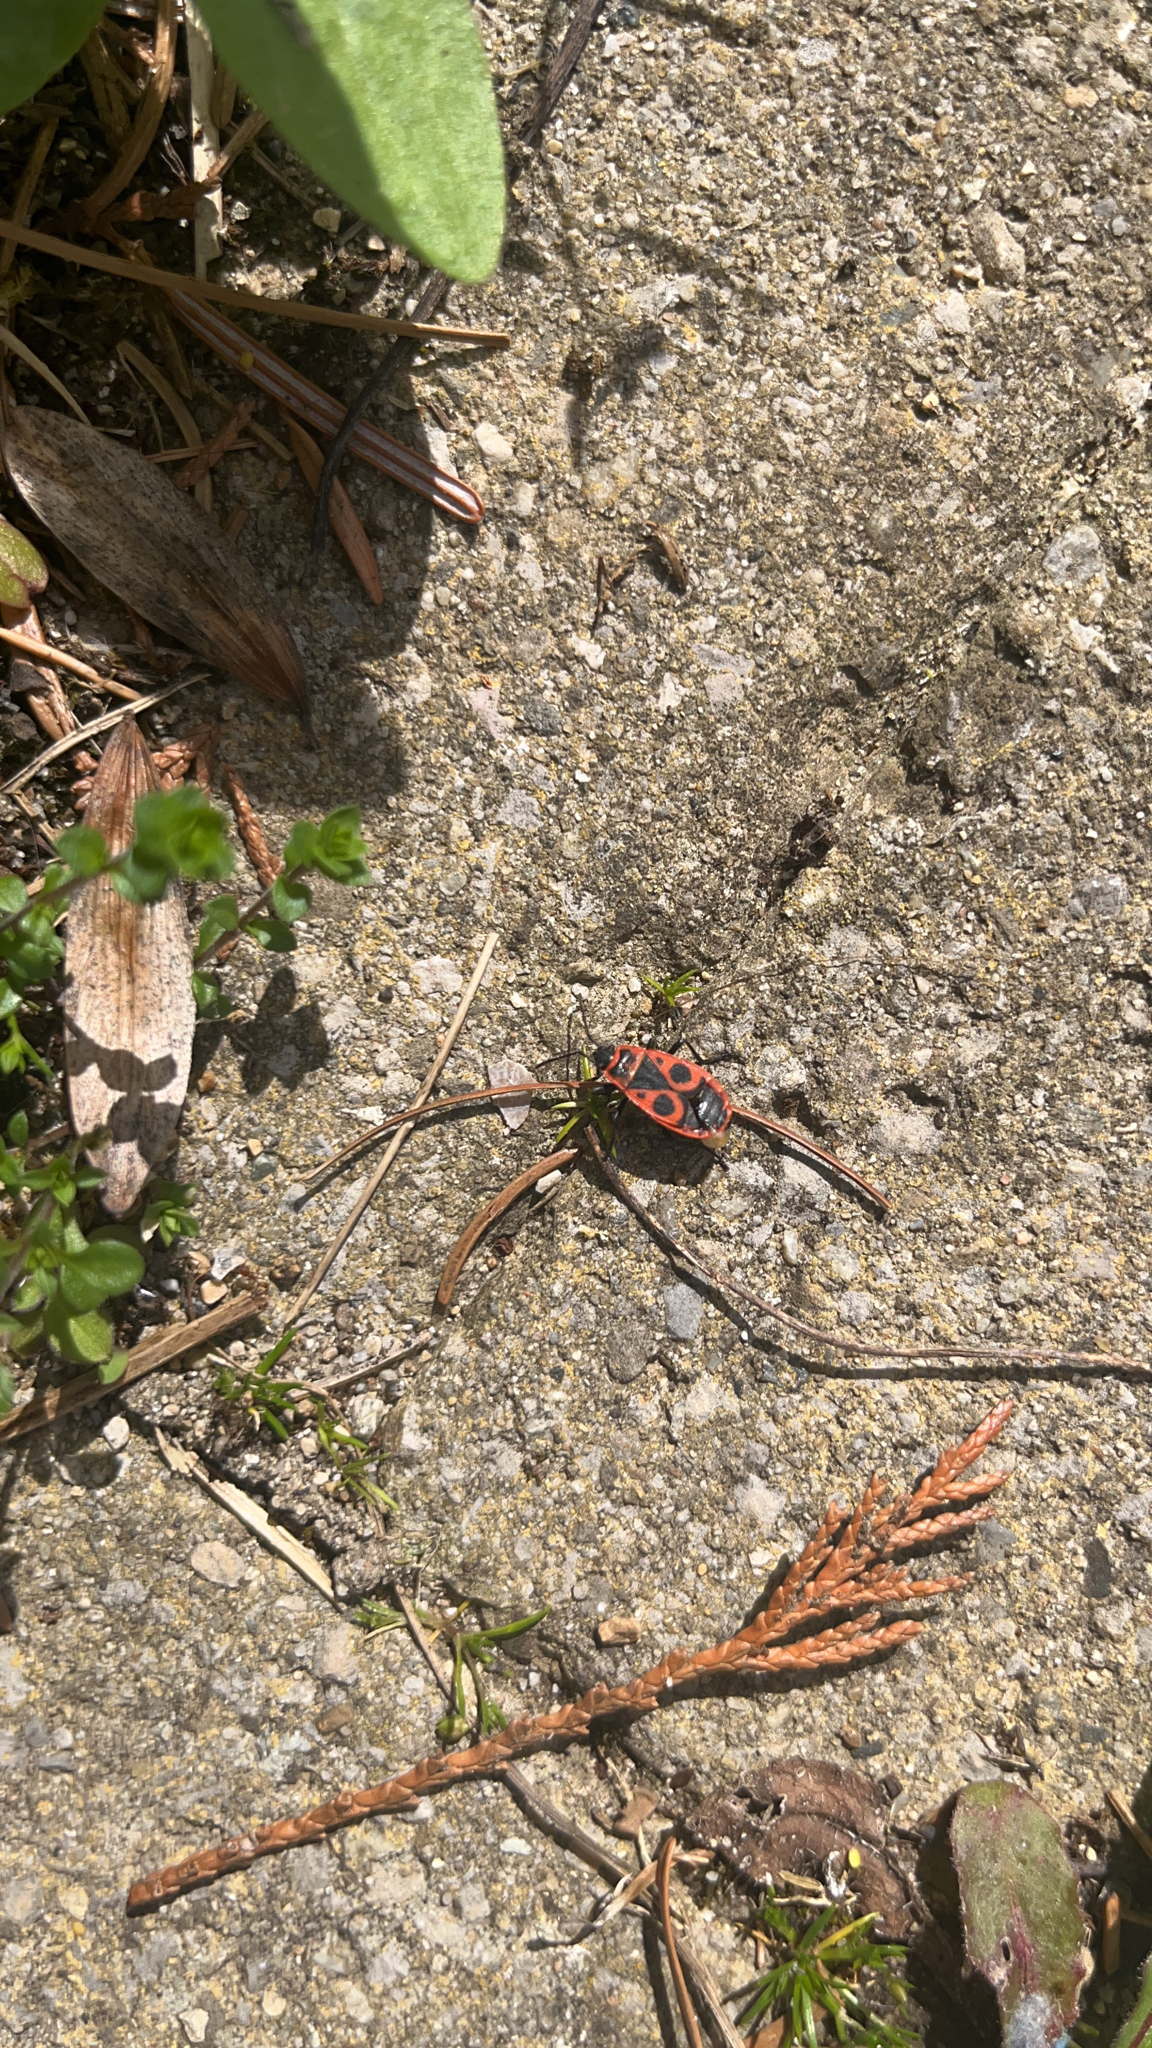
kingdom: Animalia
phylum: Arthropoda
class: Insecta
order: Hemiptera
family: Pyrrhocoridae
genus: Pyrrhocoris
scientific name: Pyrrhocoris apterus
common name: Firebug
